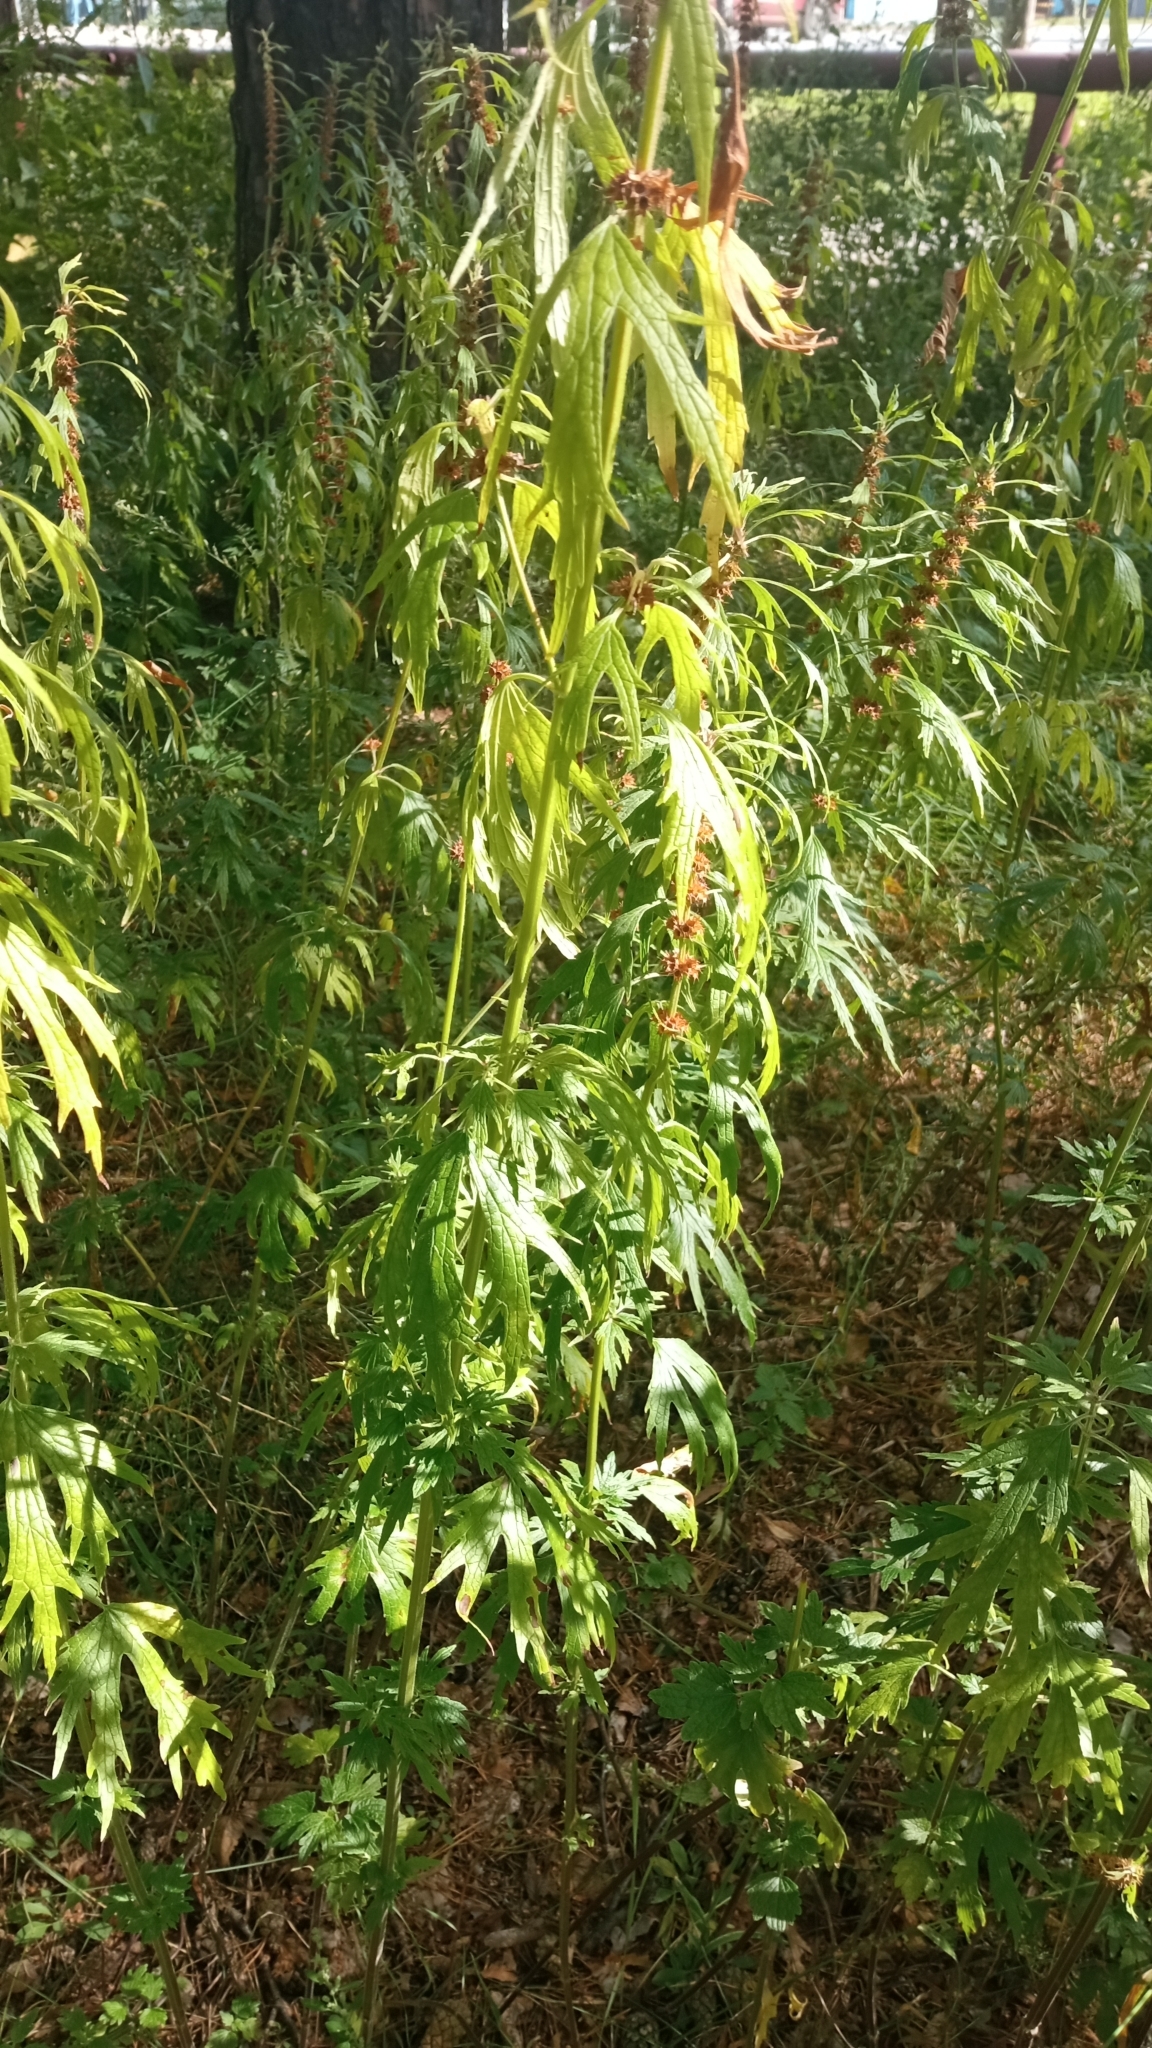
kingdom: Plantae
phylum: Tracheophyta
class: Magnoliopsida
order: Lamiales
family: Lamiaceae
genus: Leonurus
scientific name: Leonurus glaucescens
